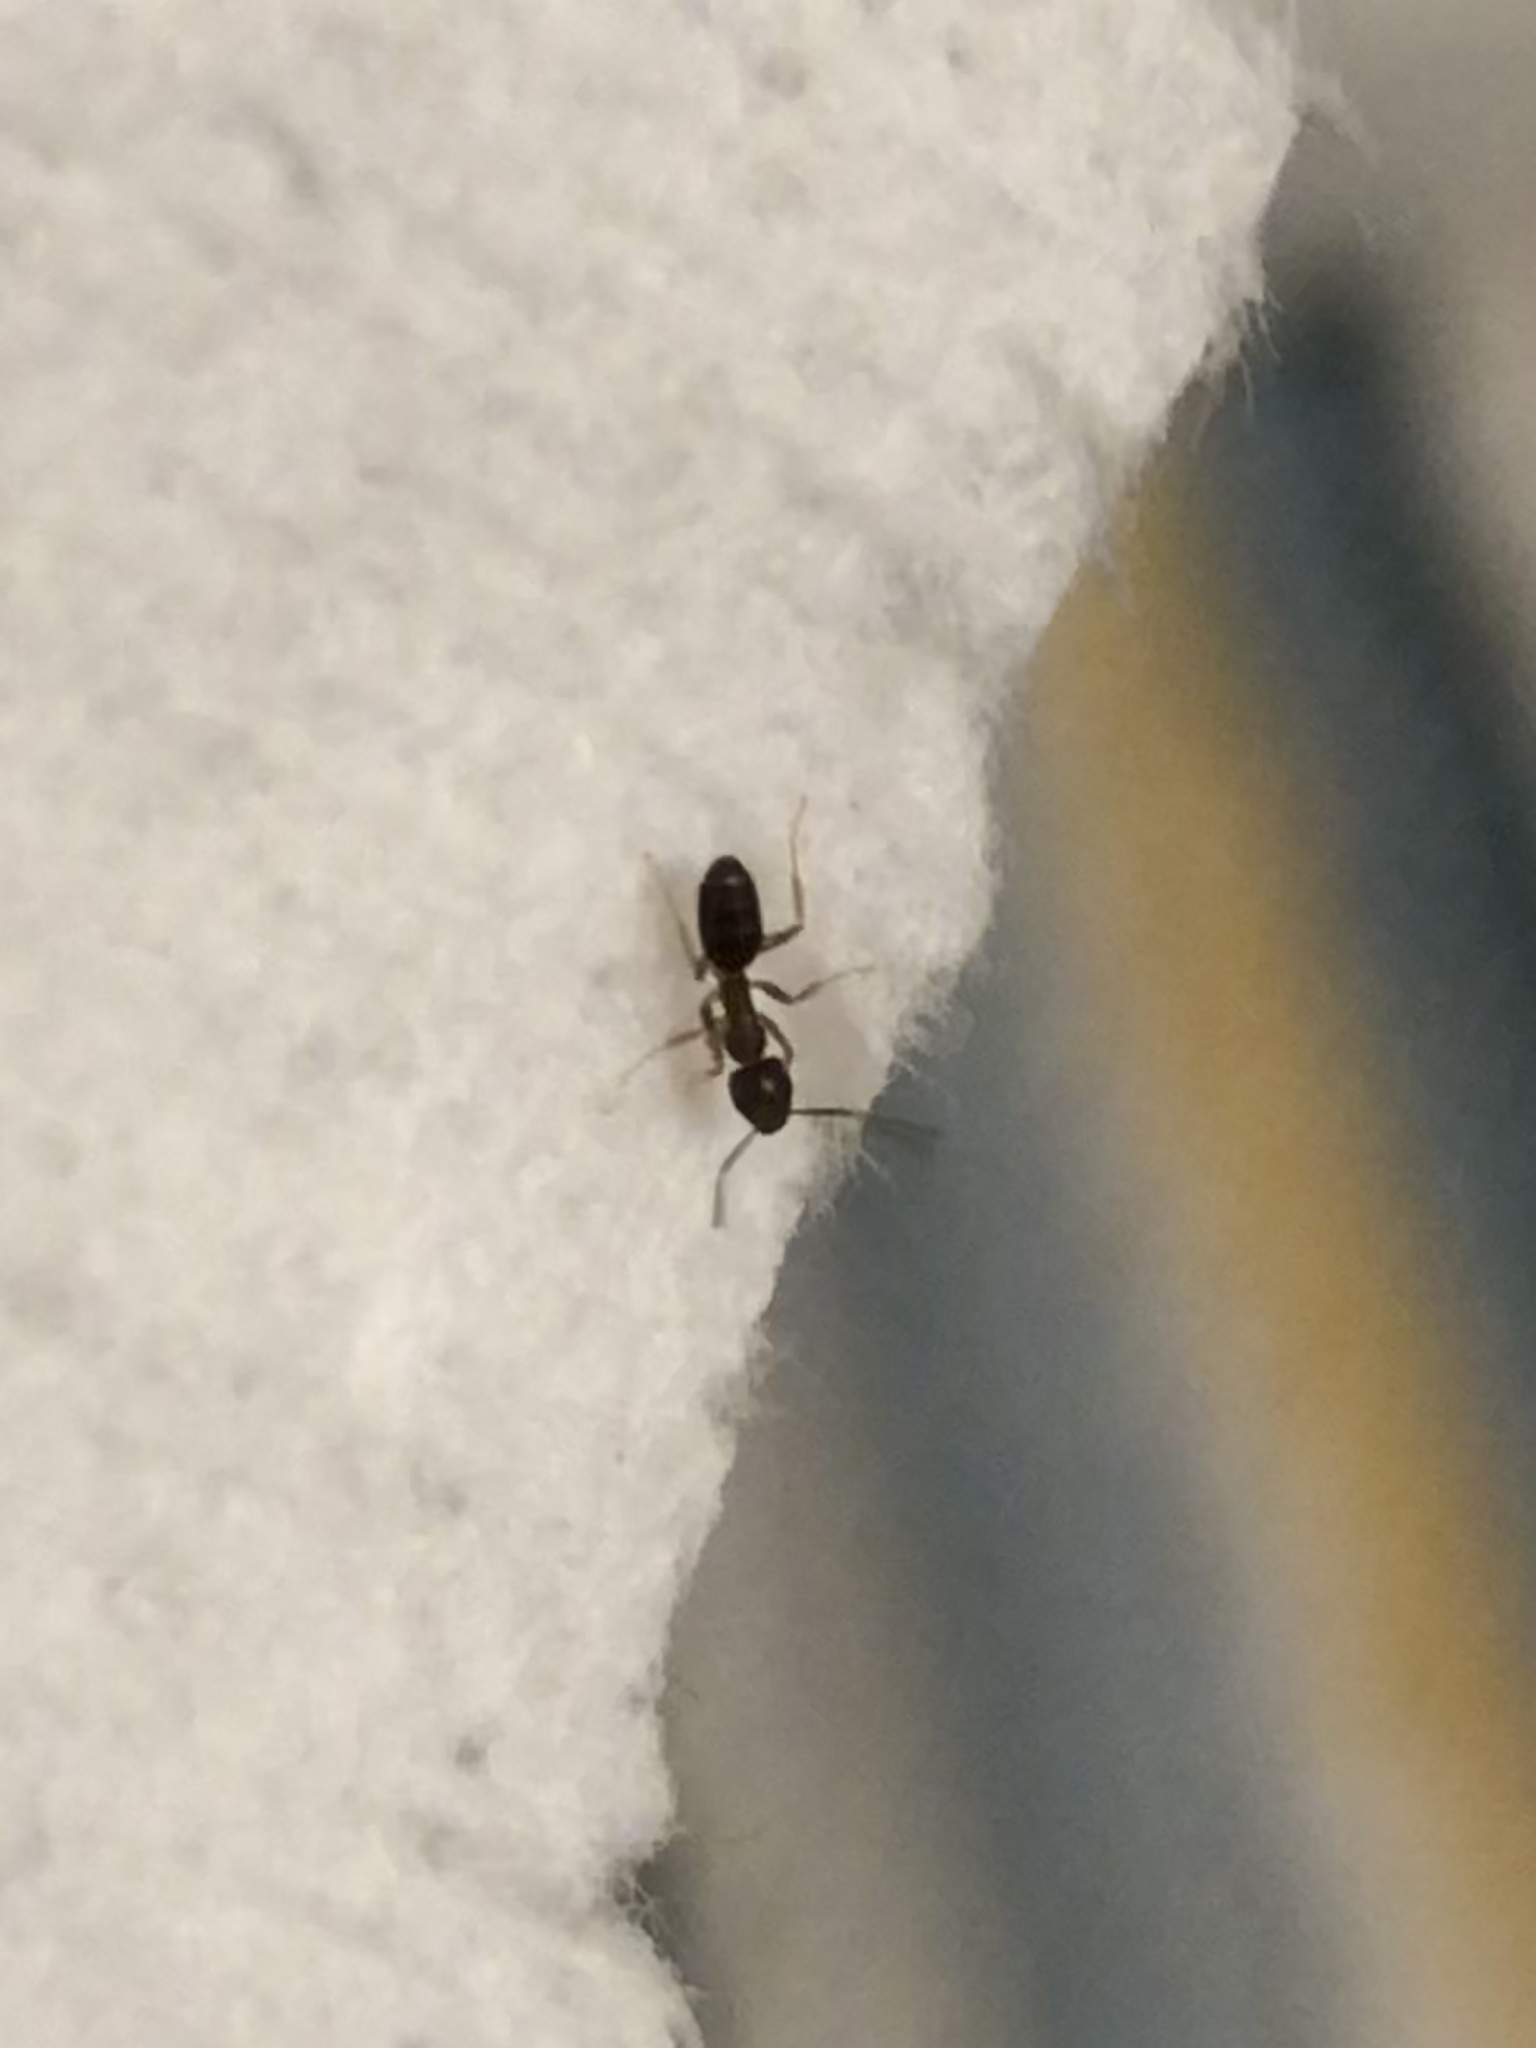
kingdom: Animalia
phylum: Arthropoda
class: Insecta
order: Hymenoptera
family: Formicidae
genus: Tapinoma
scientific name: Tapinoma sessile
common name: Odorous house ant
